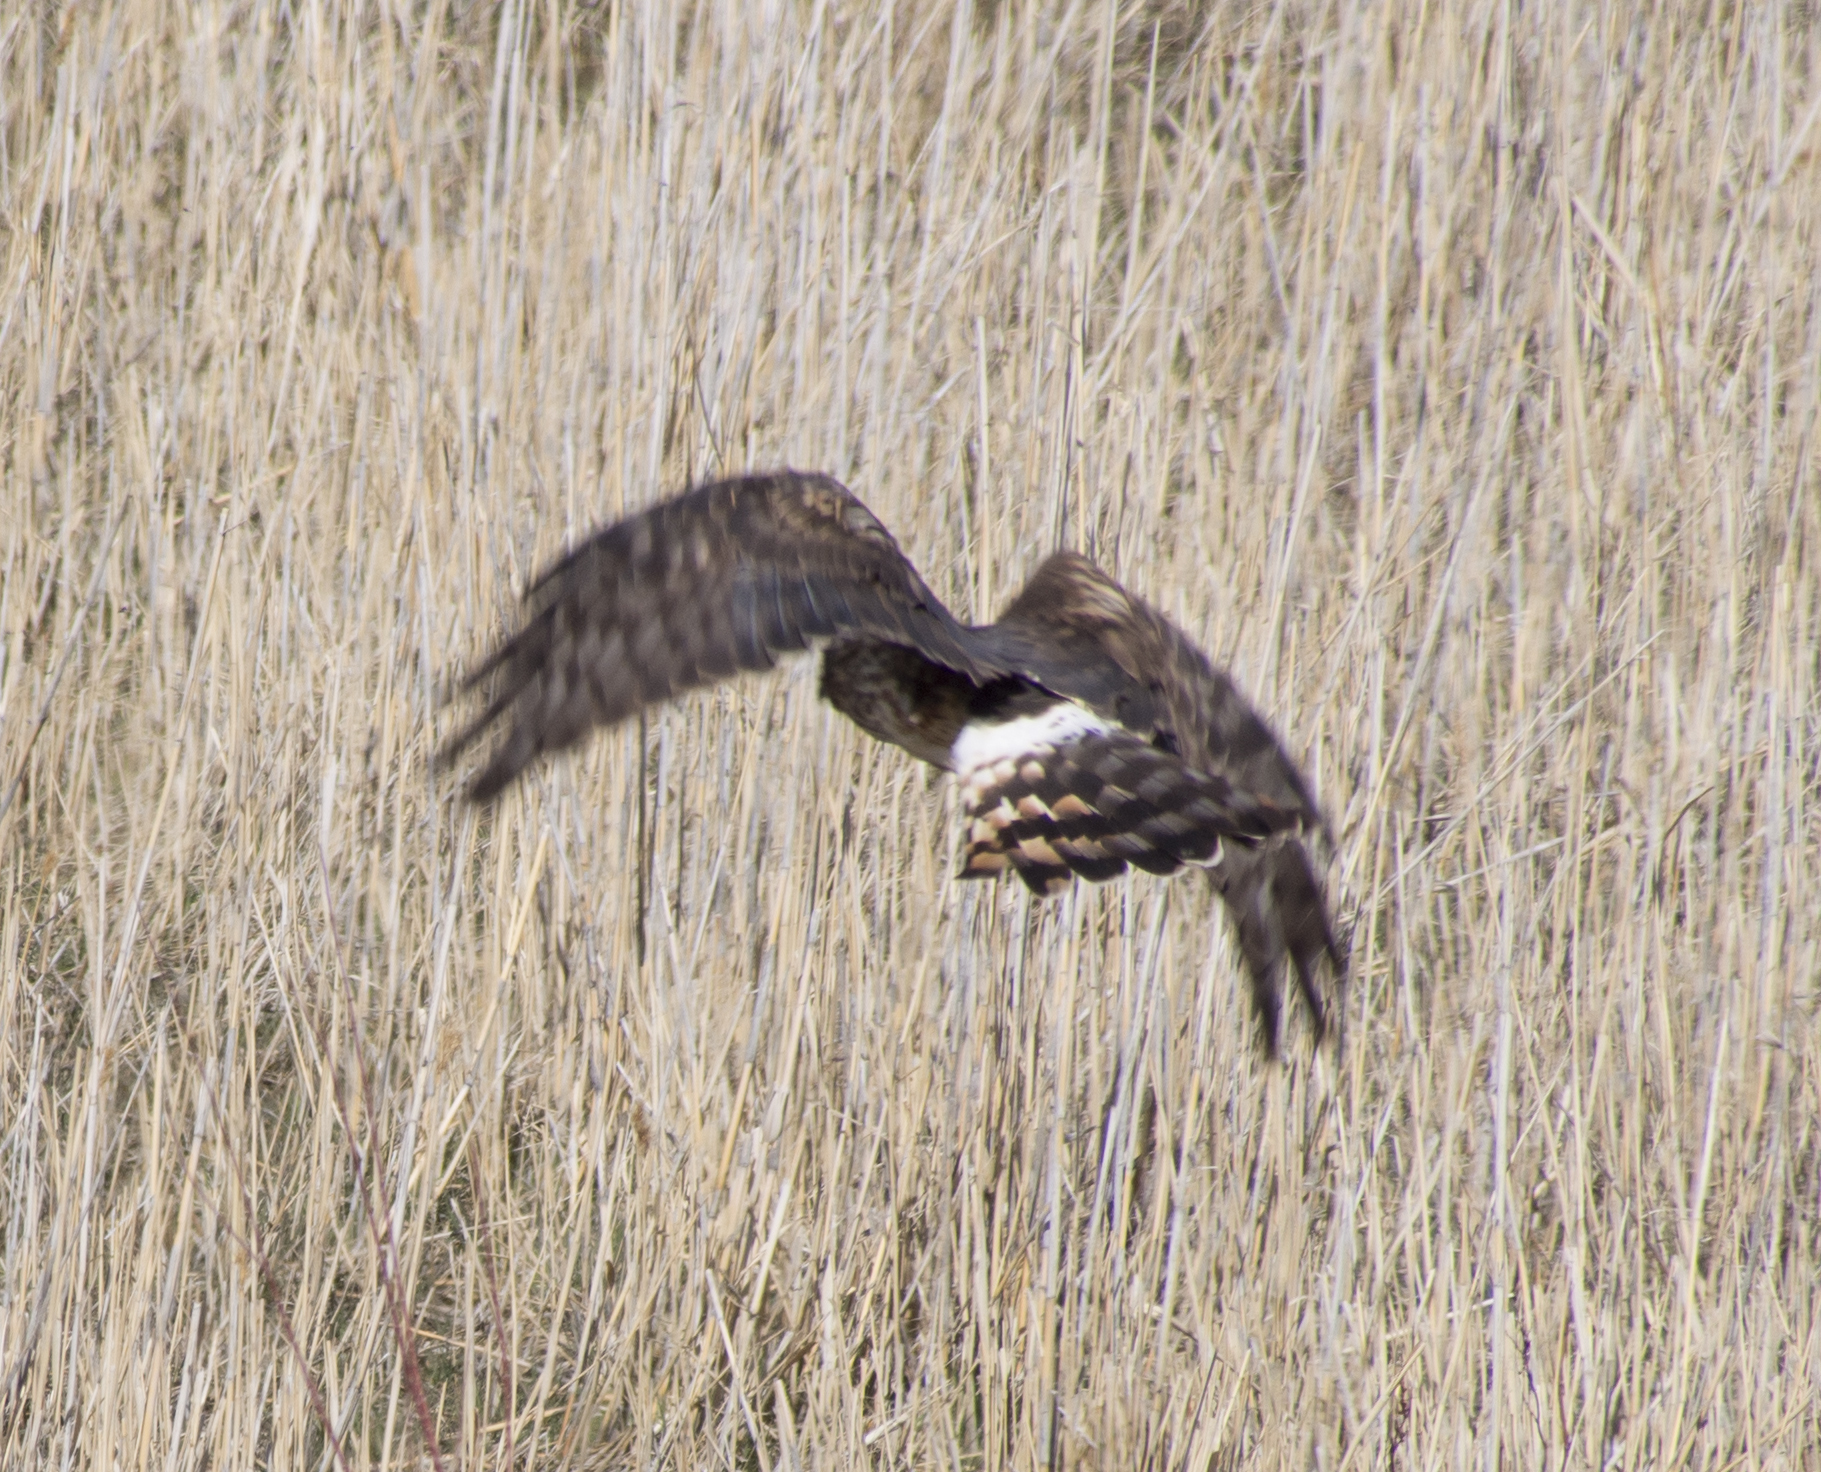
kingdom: Animalia
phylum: Chordata
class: Aves
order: Accipitriformes
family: Accipitridae
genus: Circus
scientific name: Circus cyaneus
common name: Hen harrier
